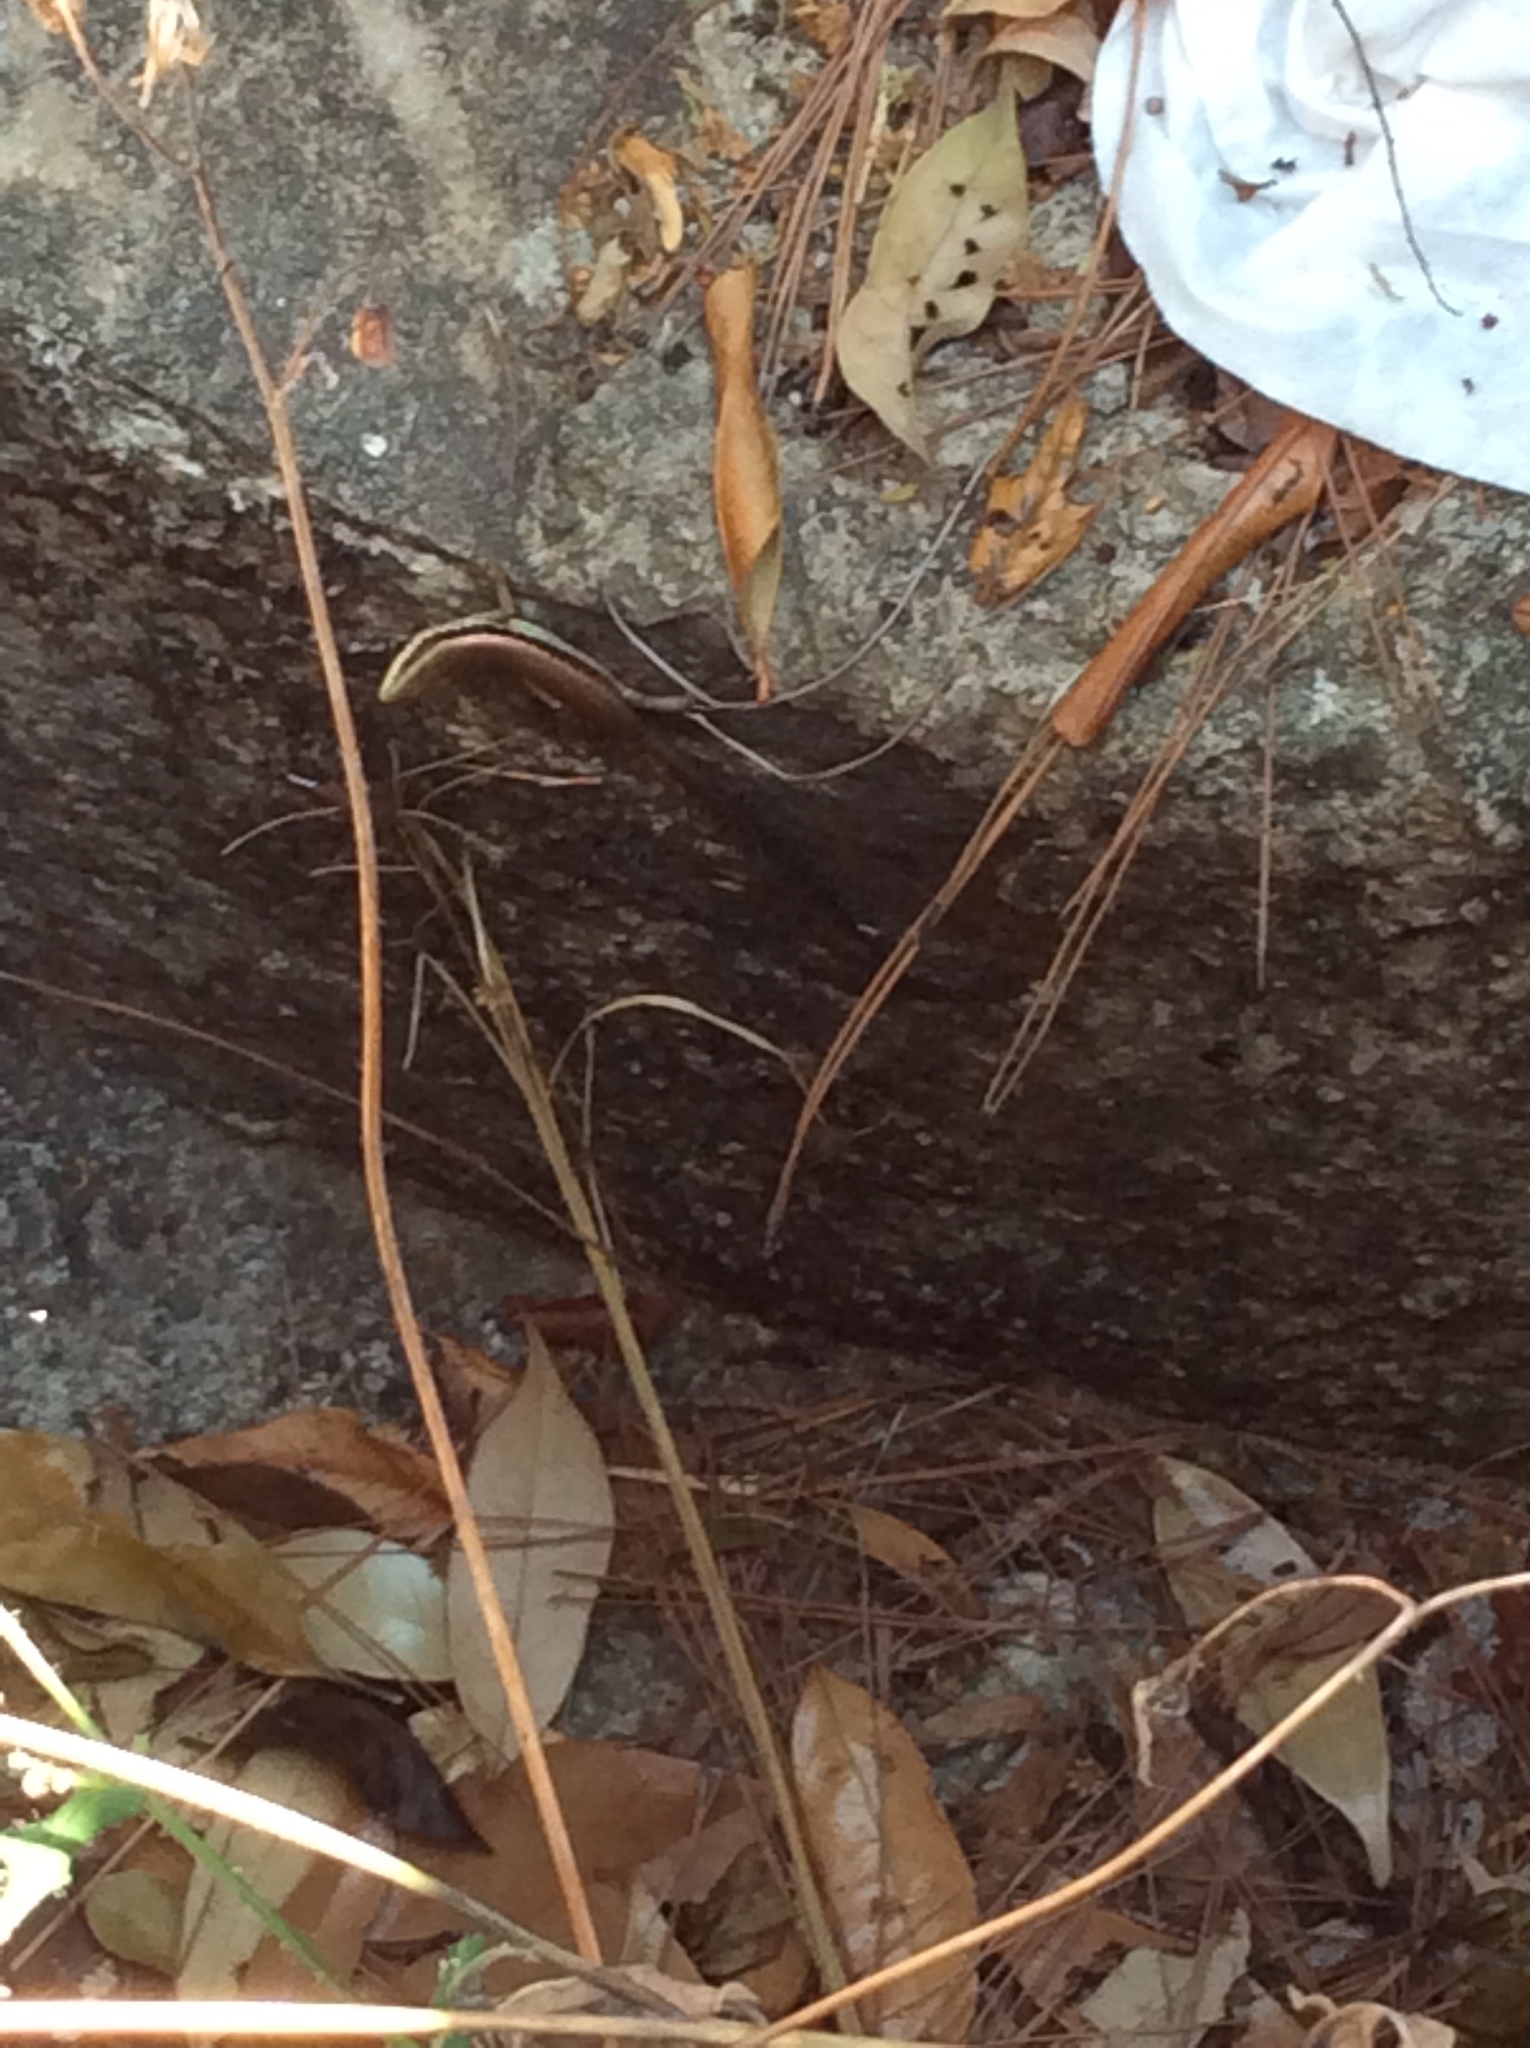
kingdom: Animalia
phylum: Chordata
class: Squamata
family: Scincidae
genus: Eutropis
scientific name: Eutropis longicaudata
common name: Long-tailed sun skink
